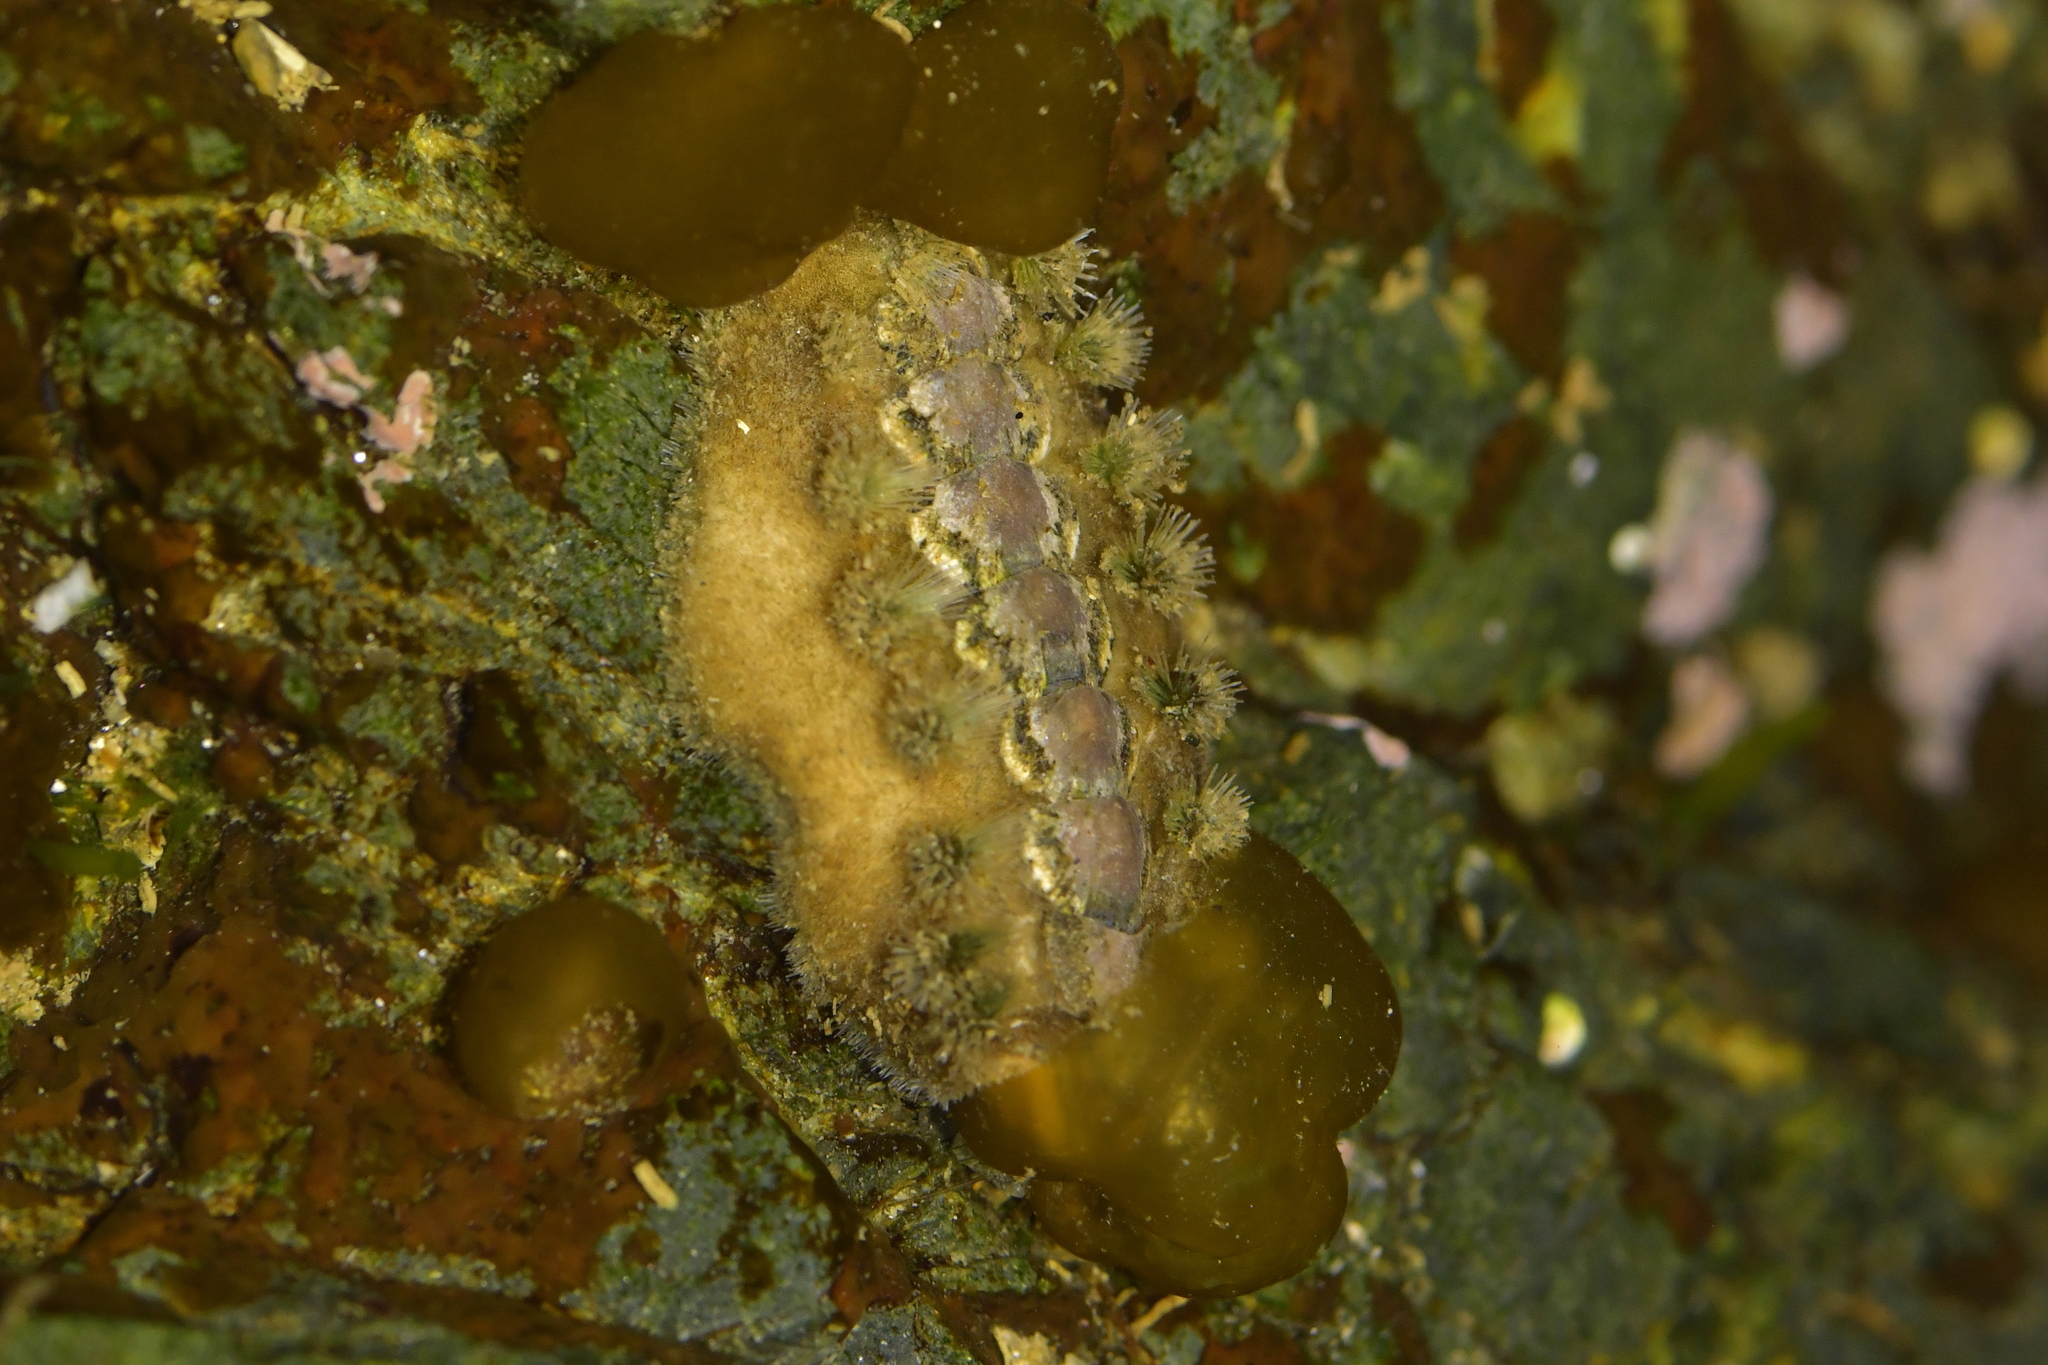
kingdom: Animalia
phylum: Mollusca
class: Polyplacophora
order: Chitonida
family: Acanthochitonidae
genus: Acanthochitona
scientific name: Acanthochitona zelandica
